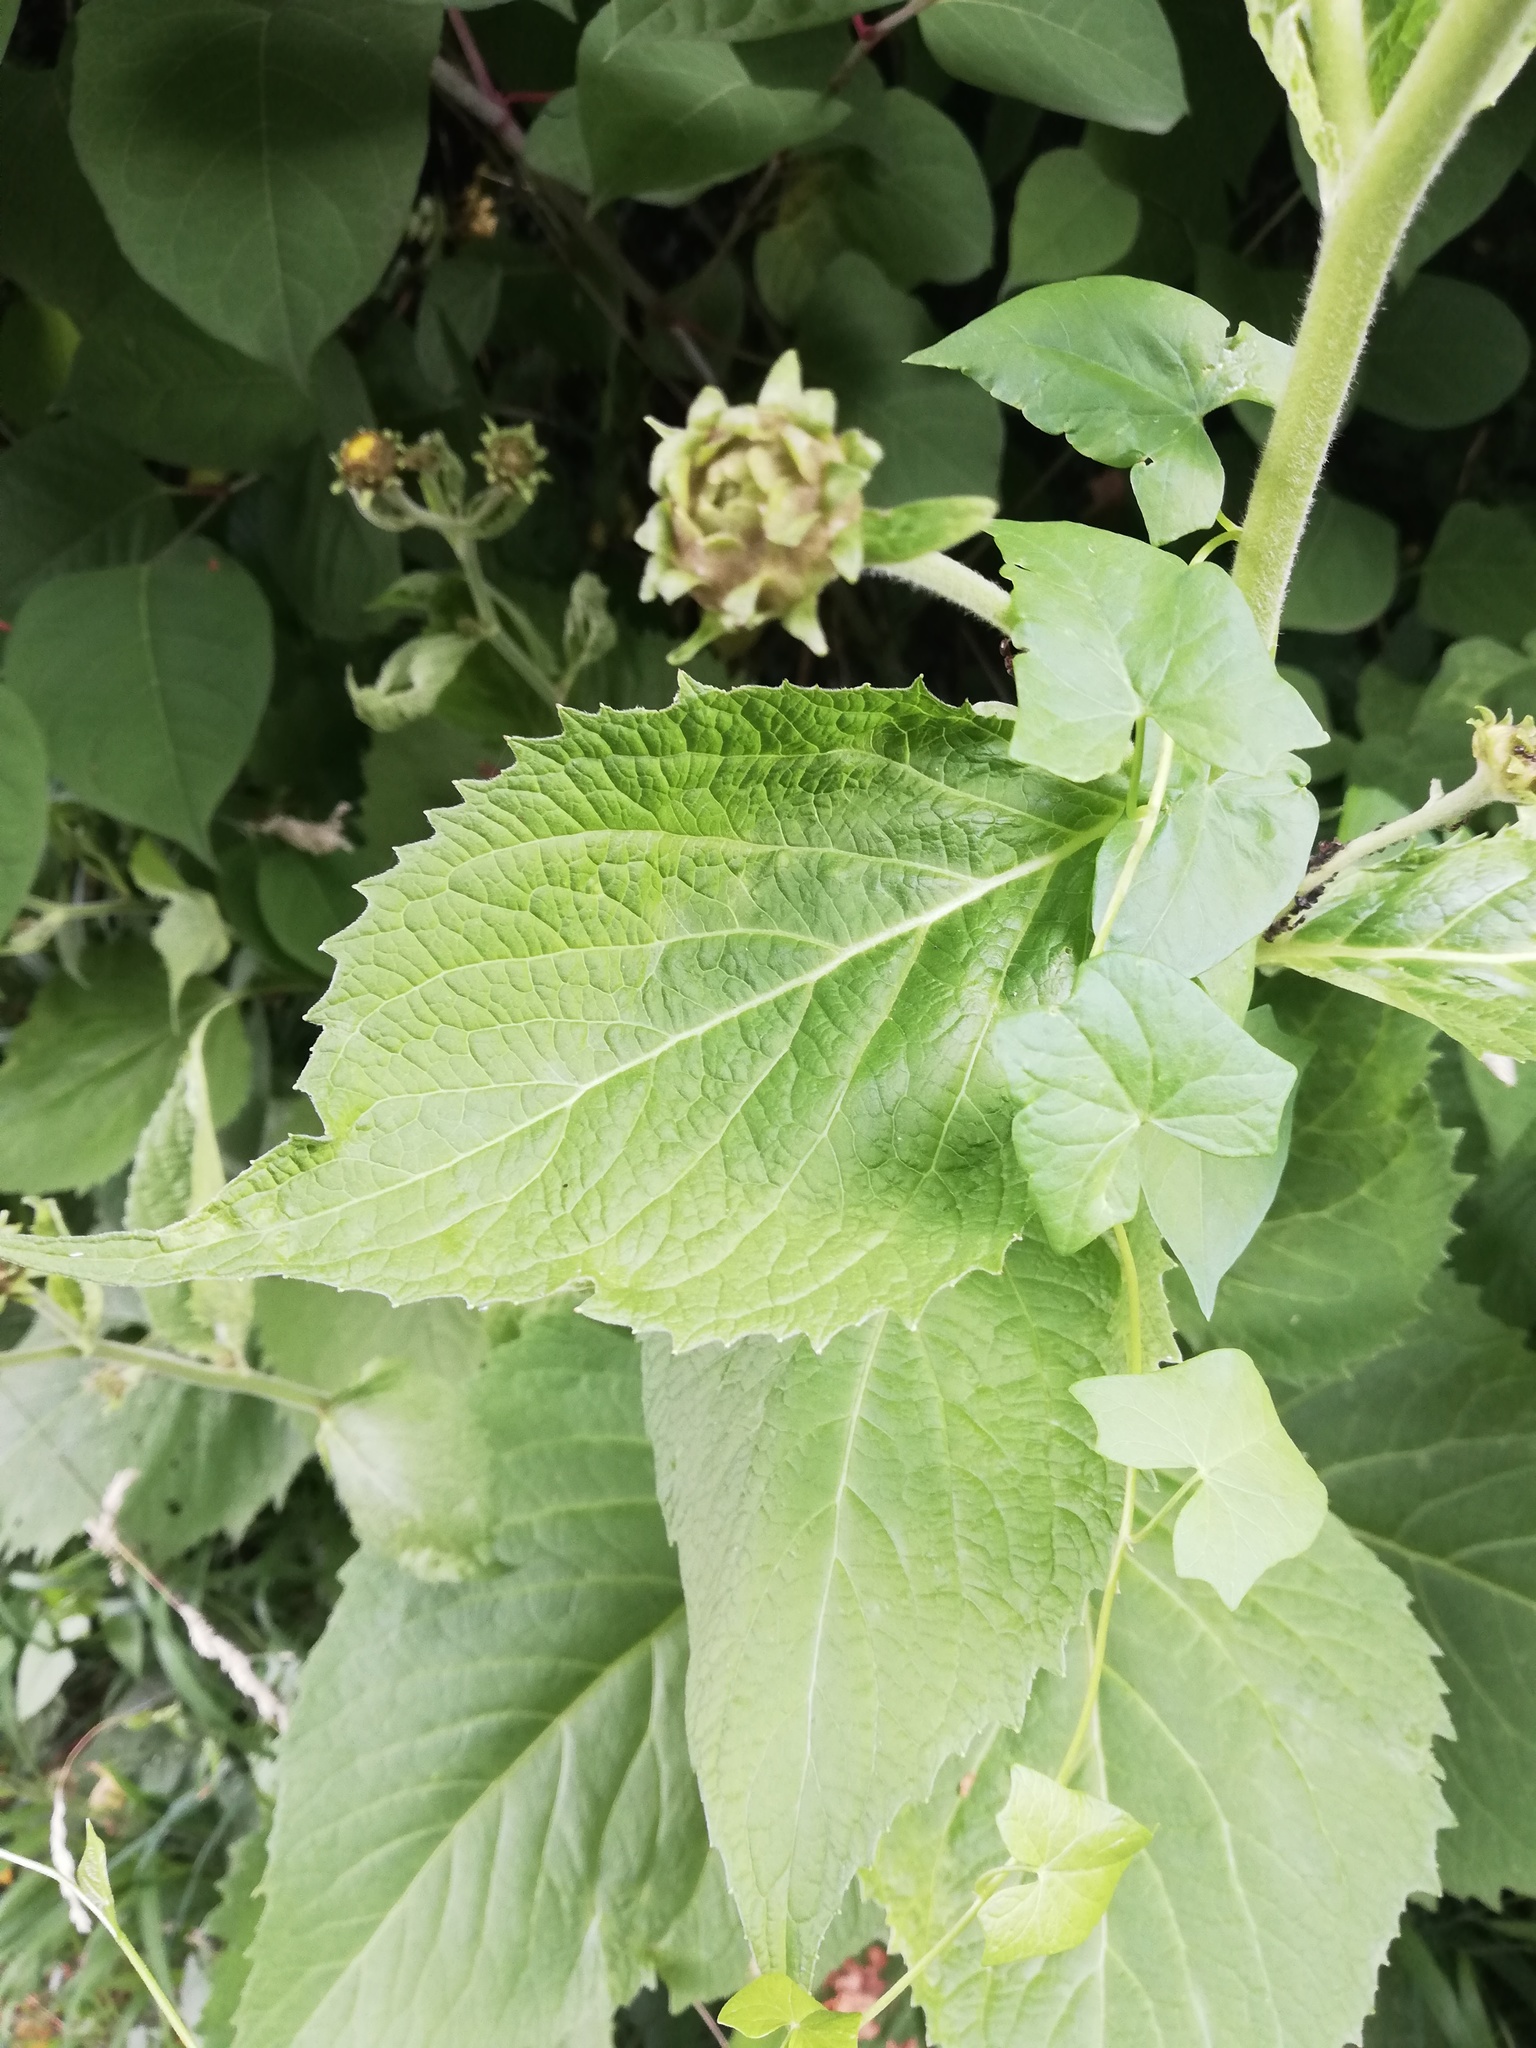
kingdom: Plantae
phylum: Tracheophyta
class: Magnoliopsida
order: Asterales
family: Asteraceae
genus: Telekia
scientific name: Telekia speciosa
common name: Yellow oxeye
